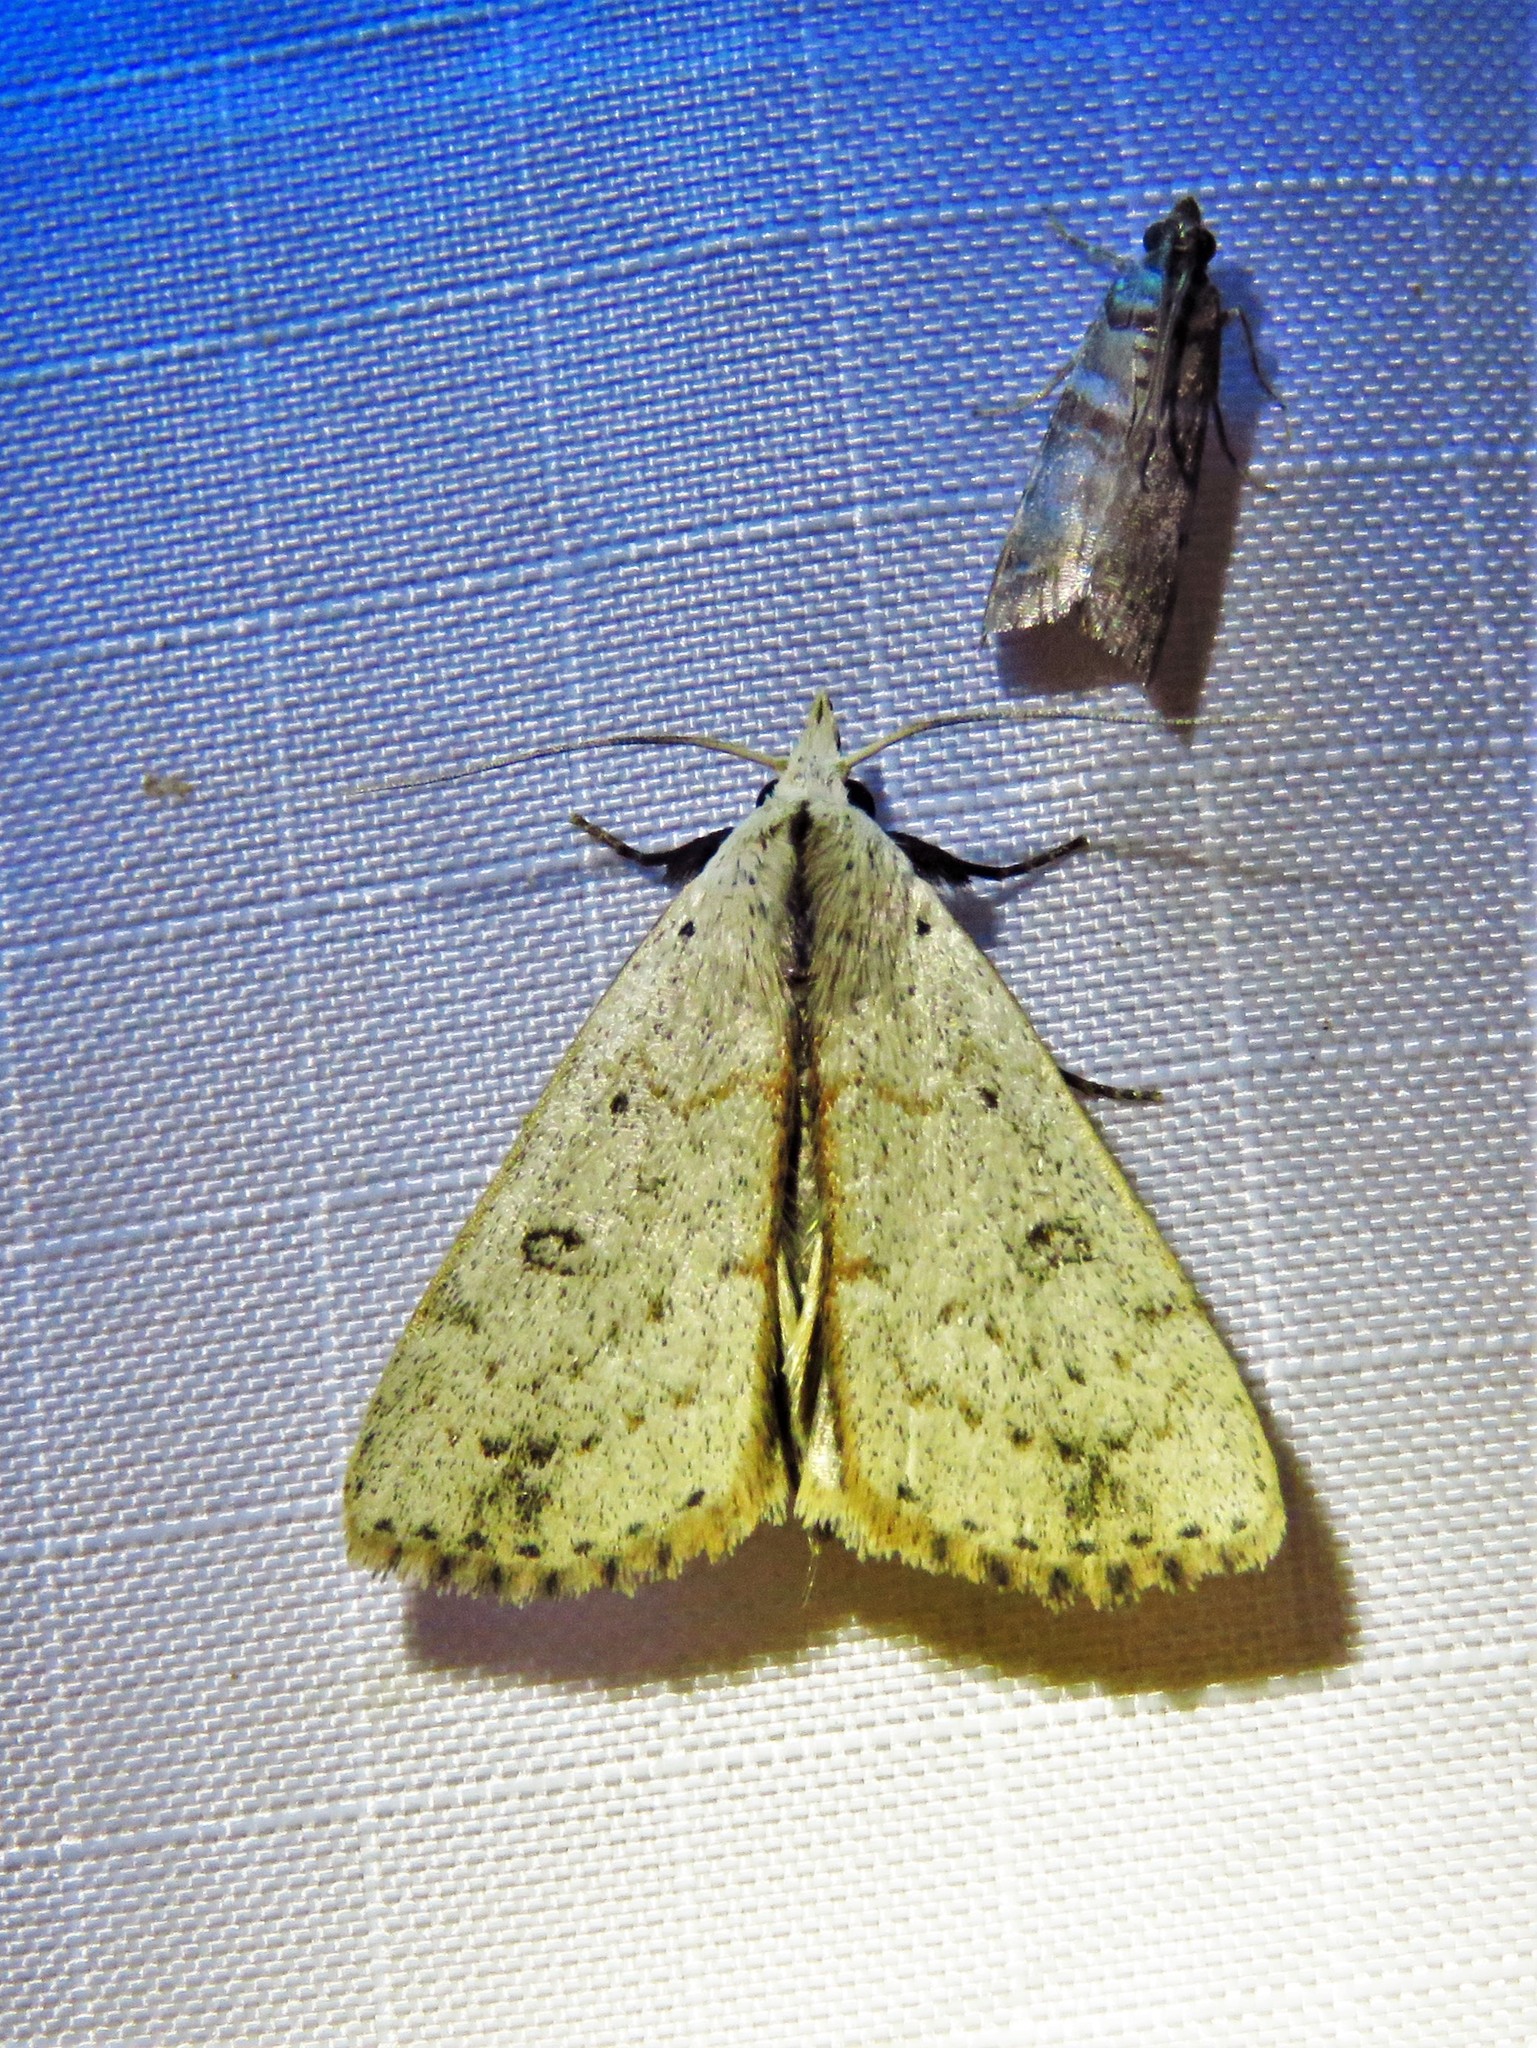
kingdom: Animalia
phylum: Arthropoda
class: Insecta
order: Lepidoptera
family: Erebidae
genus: Scolecocampa
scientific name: Scolecocampa liburna
